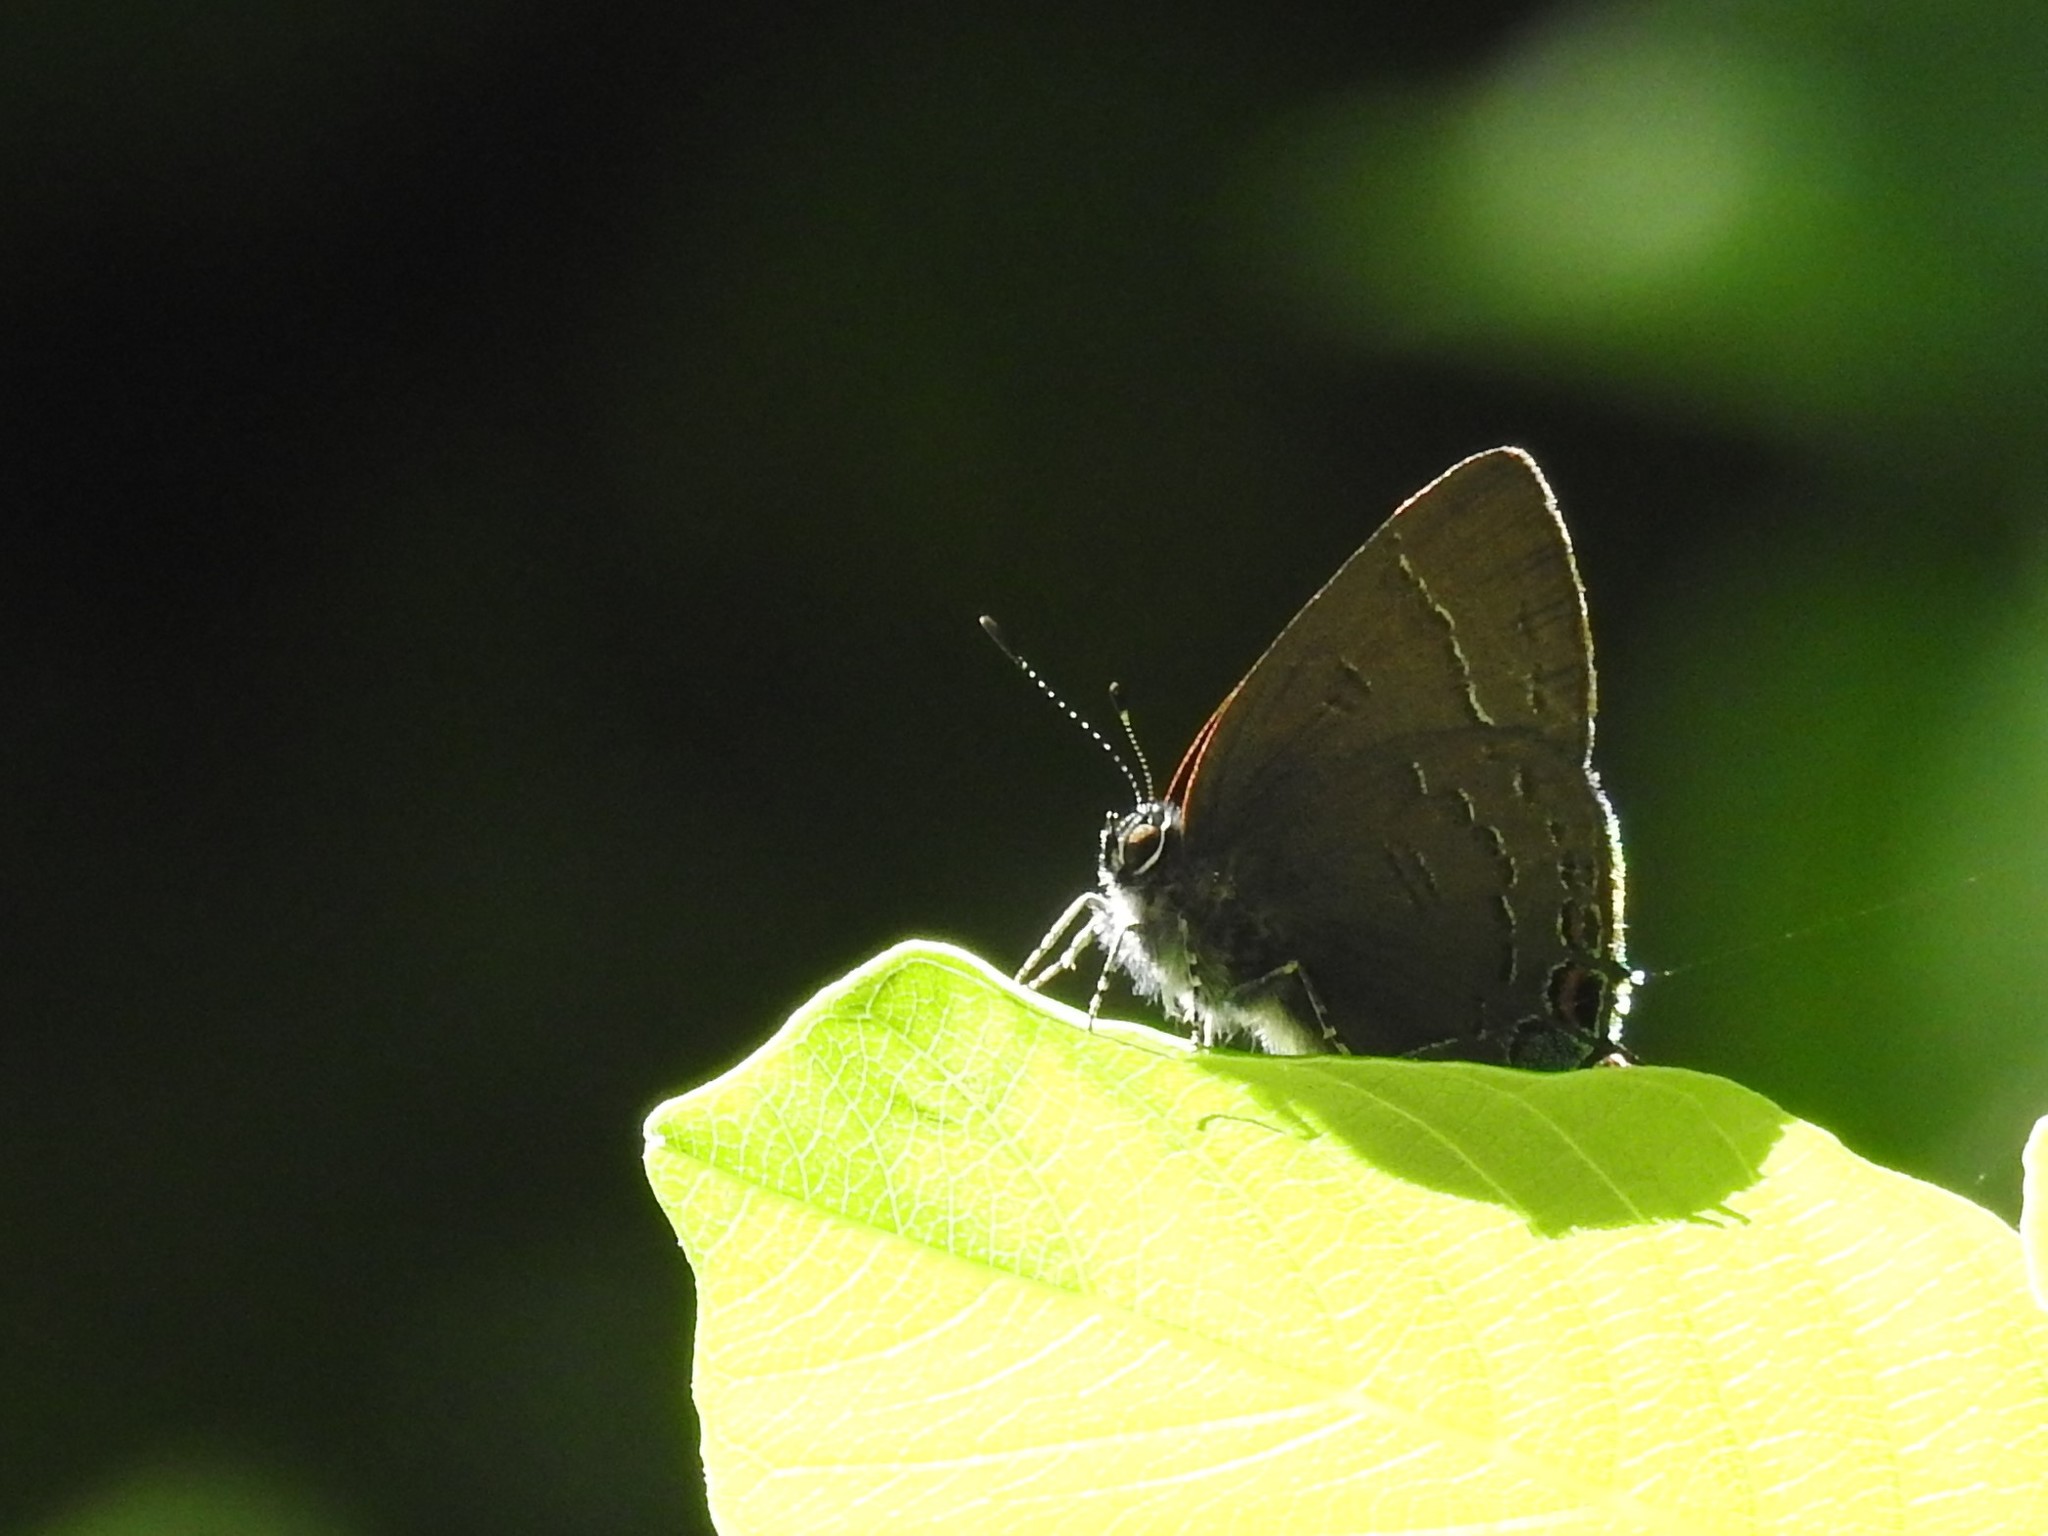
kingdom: Animalia
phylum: Arthropoda
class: Insecta
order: Lepidoptera
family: Lycaenidae
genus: Satyrium
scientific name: Satyrium calanus
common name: Banded hairstreak
